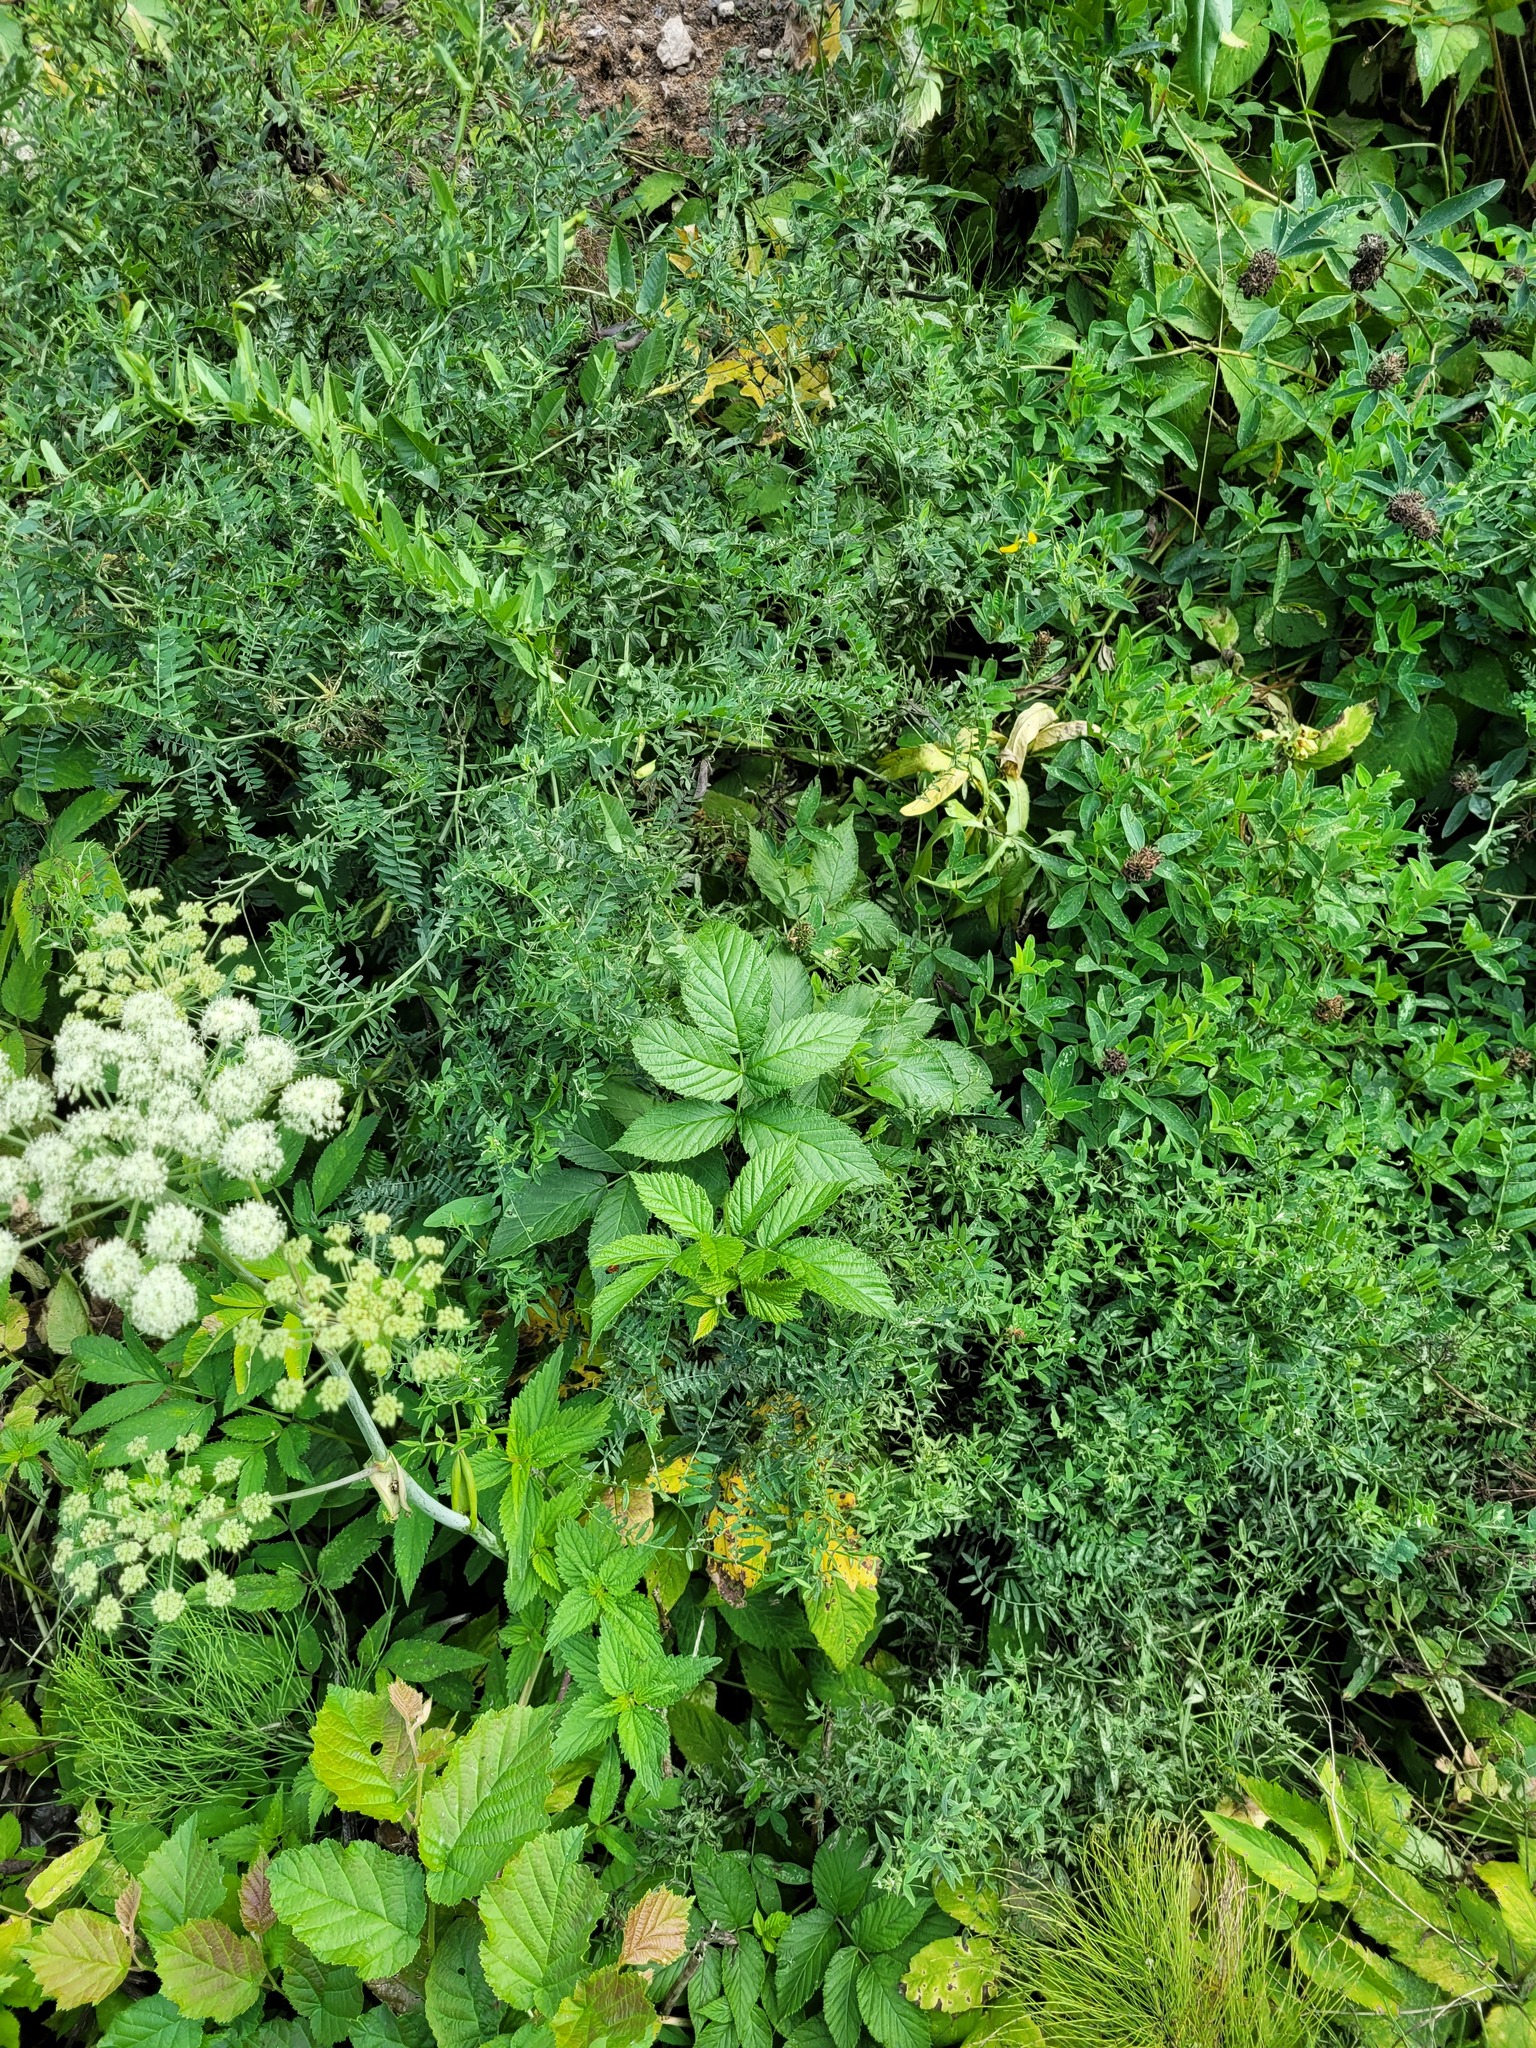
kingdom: Plantae
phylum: Tracheophyta
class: Magnoliopsida
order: Rosales
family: Rosaceae
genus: Rubus
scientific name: Rubus idaeus
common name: Raspberry
